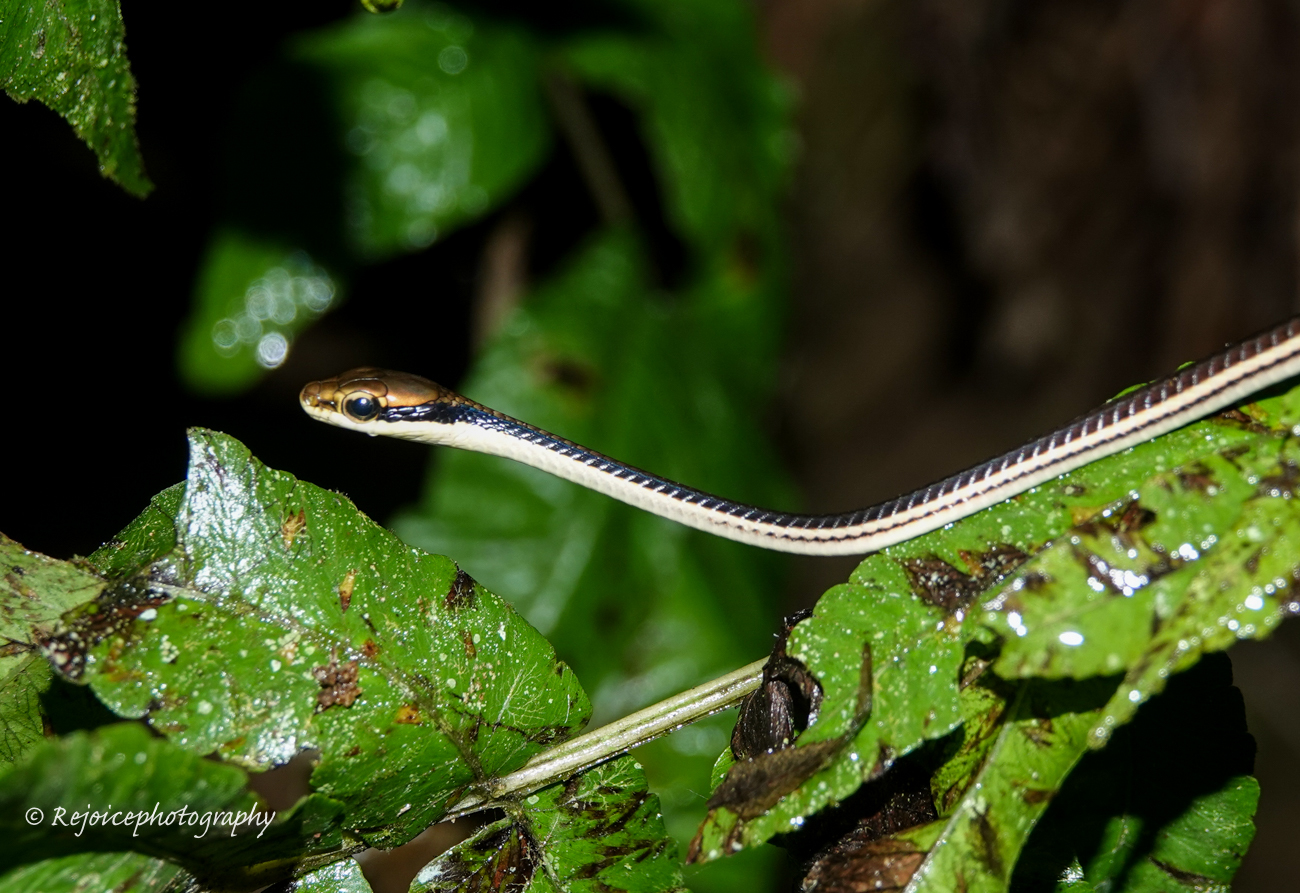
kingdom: Animalia
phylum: Chordata
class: Squamata
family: Colubridae
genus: Dendrelaphis
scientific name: Dendrelaphis pictus
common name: Indonesian bronze-back
